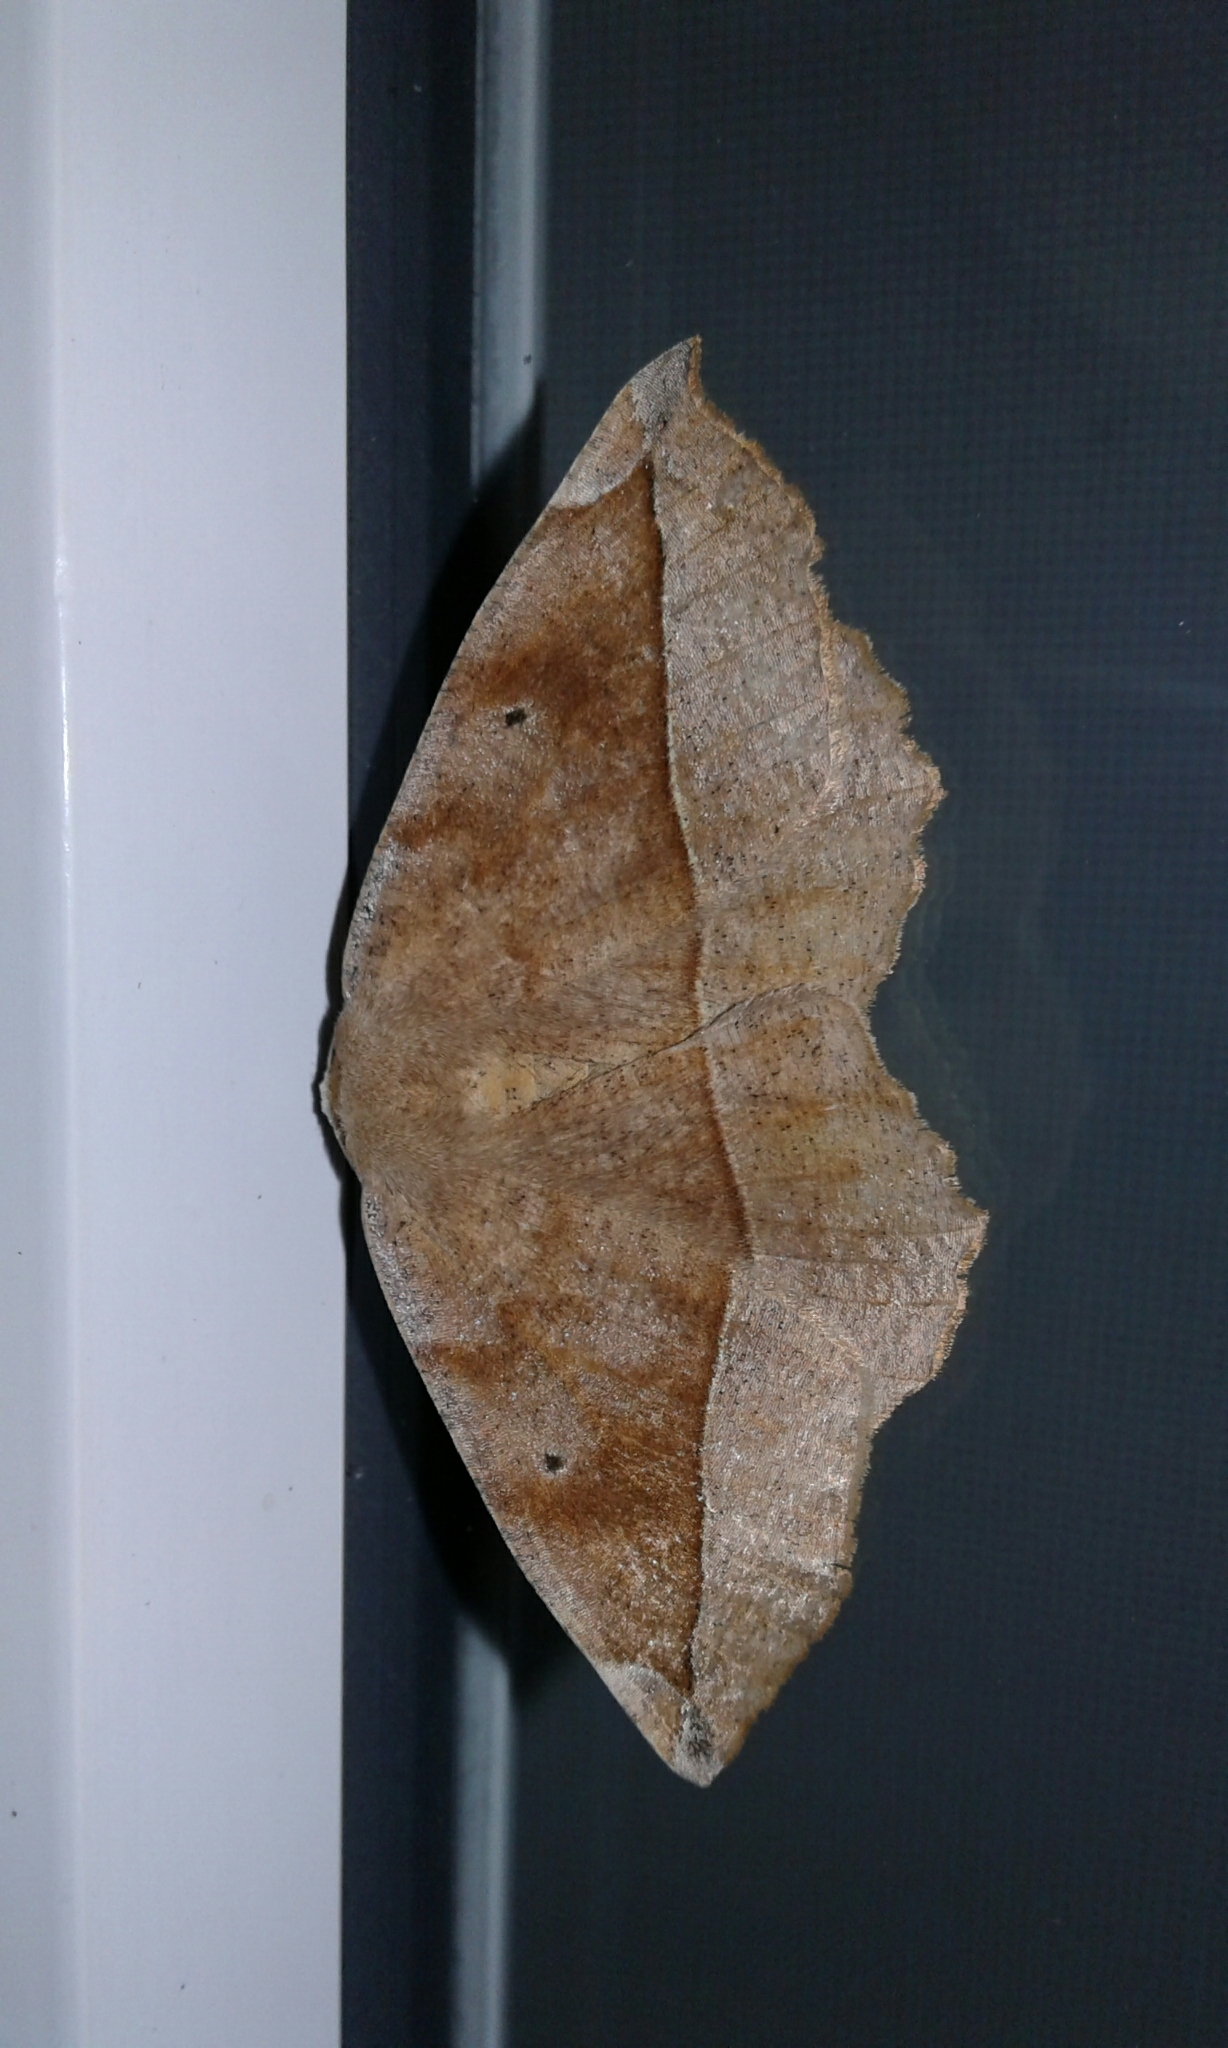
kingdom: Animalia
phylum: Arthropoda
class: Insecta
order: Lepidoptera
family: Geometridae
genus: Eutrapela
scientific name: Eutrapela clemataria
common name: Curved-toothed geometer
